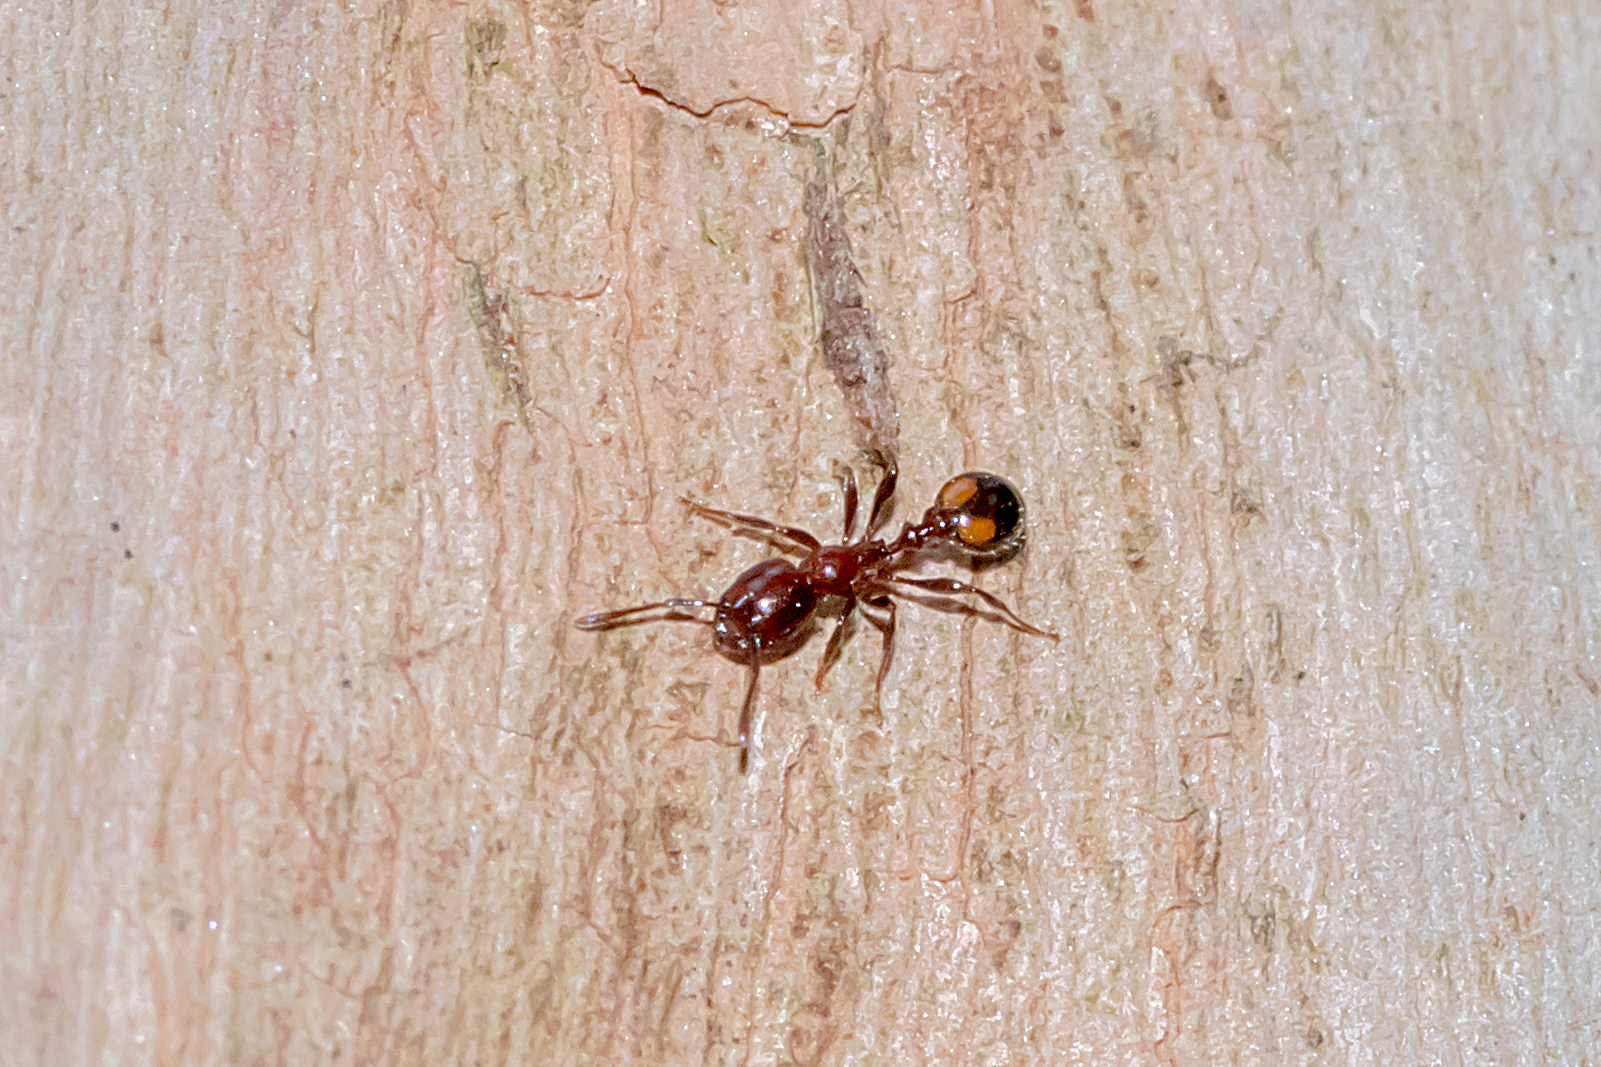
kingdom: Animalia
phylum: Arthropoda
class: Insecta
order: Hymenoptera
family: Formicidae
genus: Chelaner
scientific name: Chelaner
